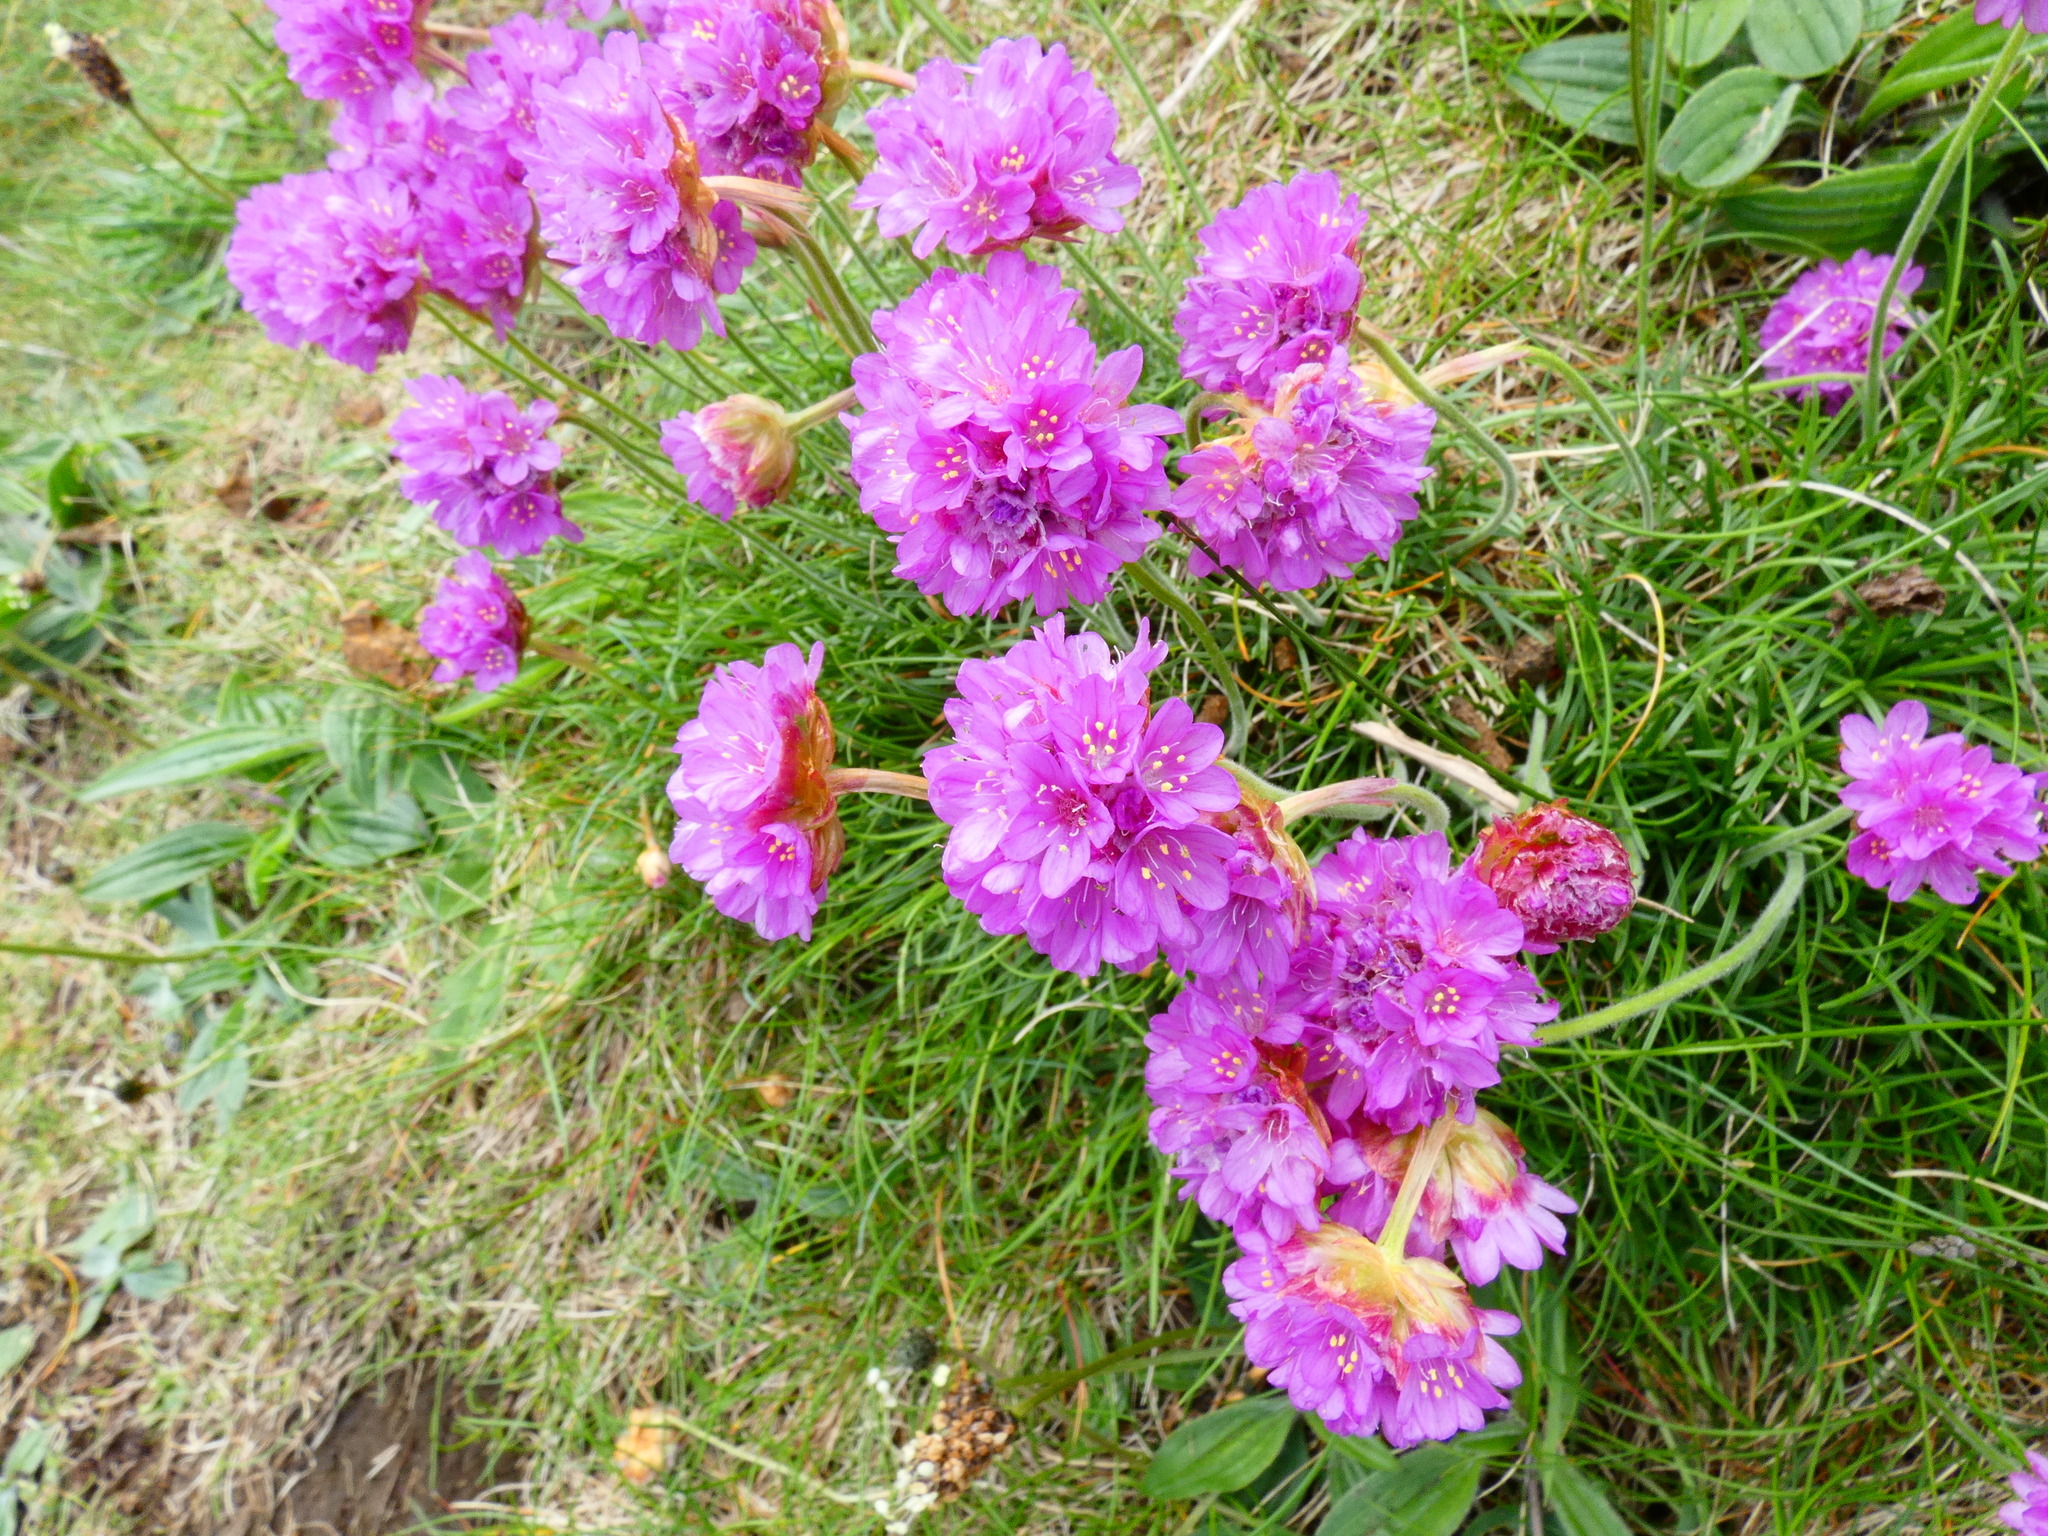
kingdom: Plantae
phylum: Tracheophyta
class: Magnoliopsida
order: Caryophyllales
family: Plumbaginaceae
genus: Armeria
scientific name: Armeria maritima
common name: Thrift
